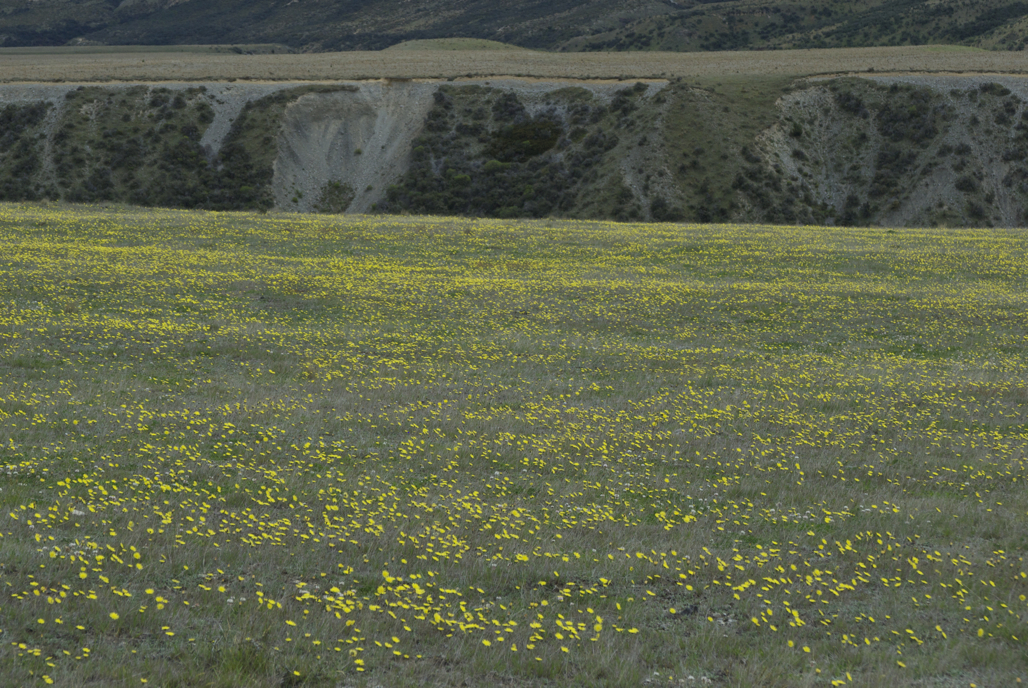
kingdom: Plantae
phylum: Tracheophyta
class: Magnoliopsida
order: Asterales
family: Asteraceae
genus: Pilosella
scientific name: Pilosella officinarum
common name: Mouse-ear hawkweed
